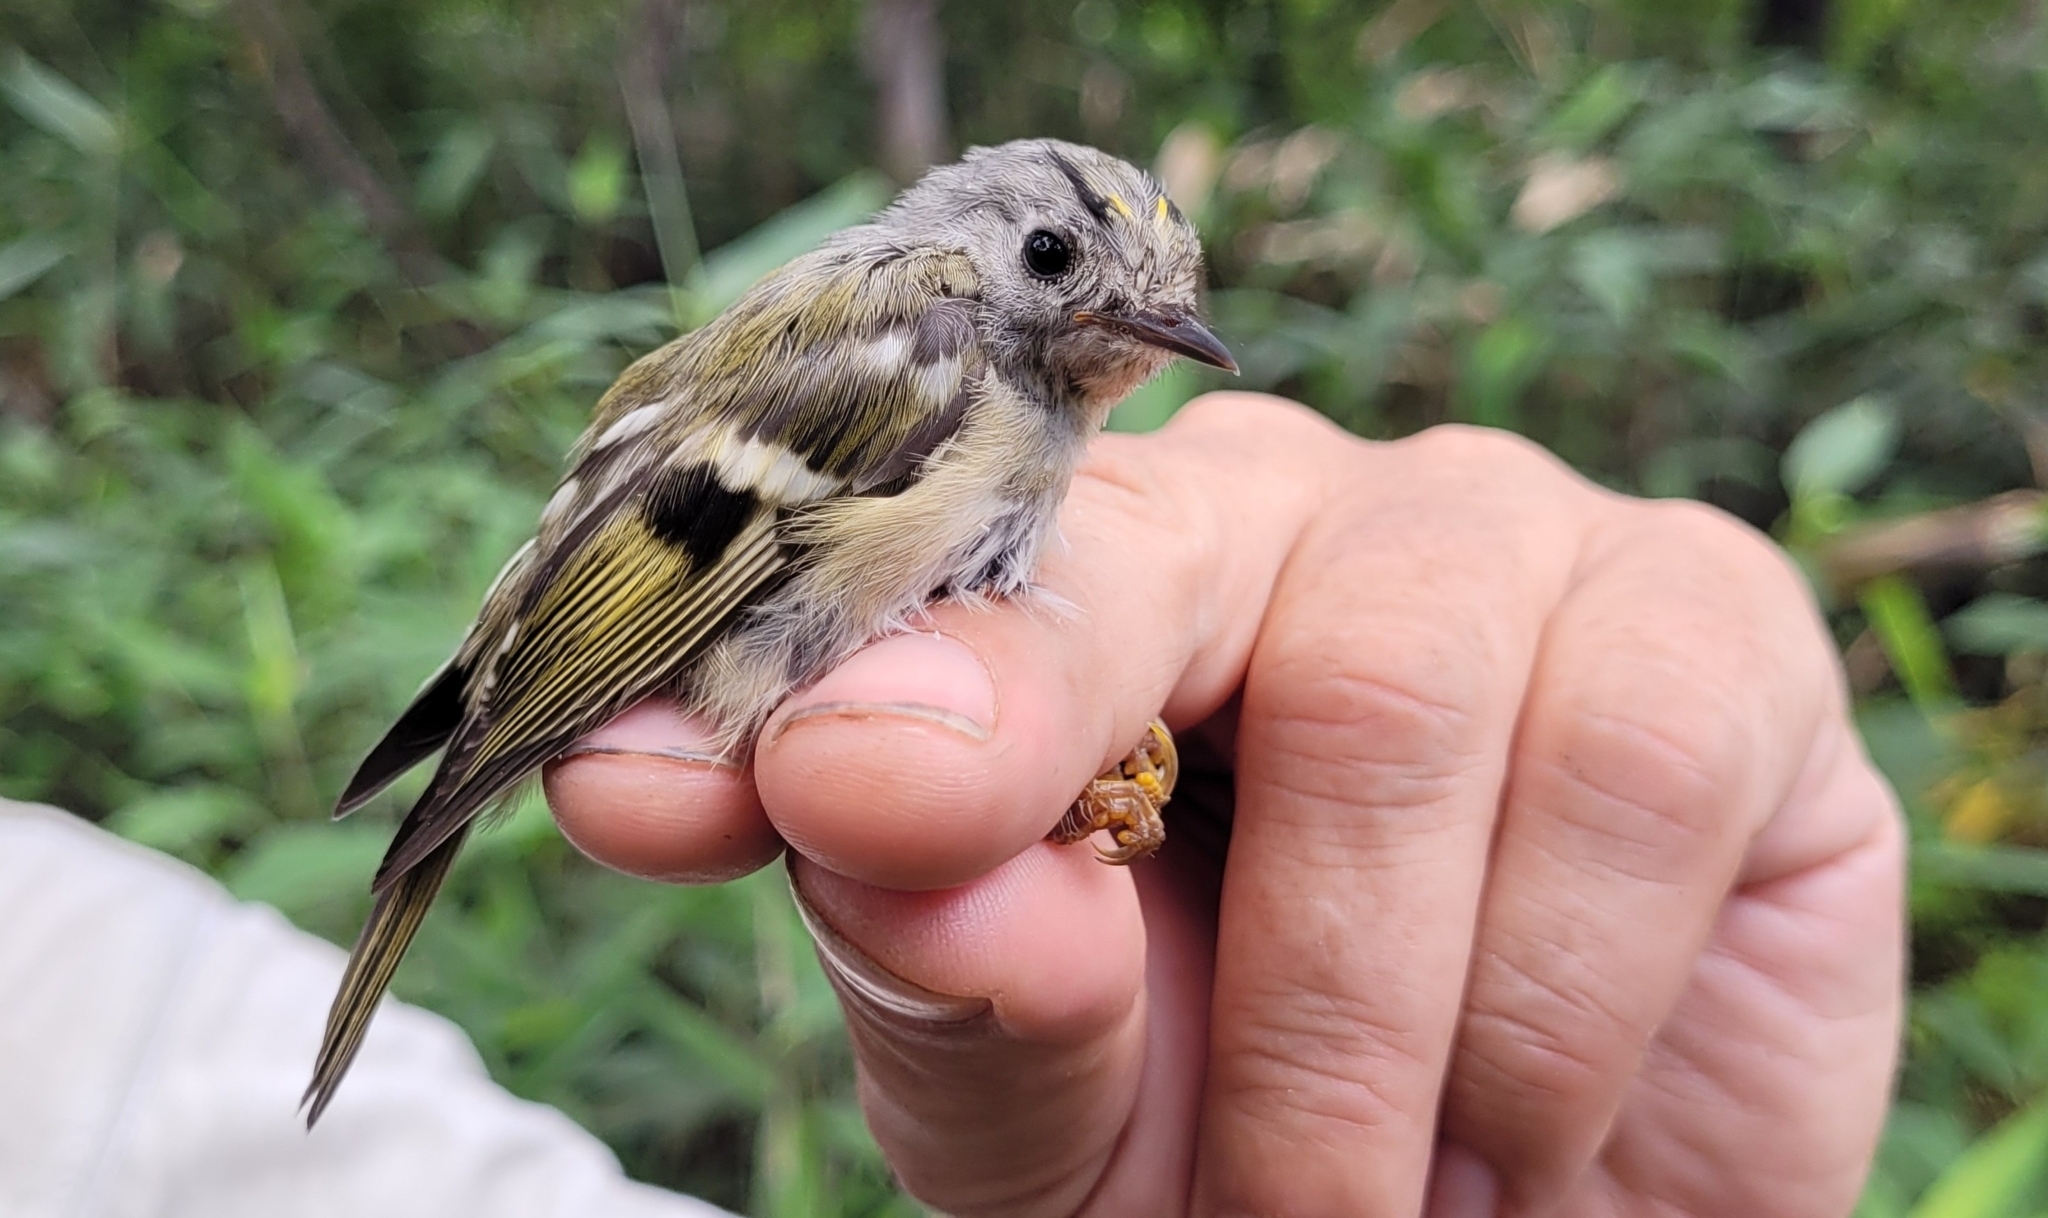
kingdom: Animalia
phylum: Chordata
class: Aves
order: Passeriformes
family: Regulidae
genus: Regulus
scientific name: Regulus regulus
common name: Goldcrest
